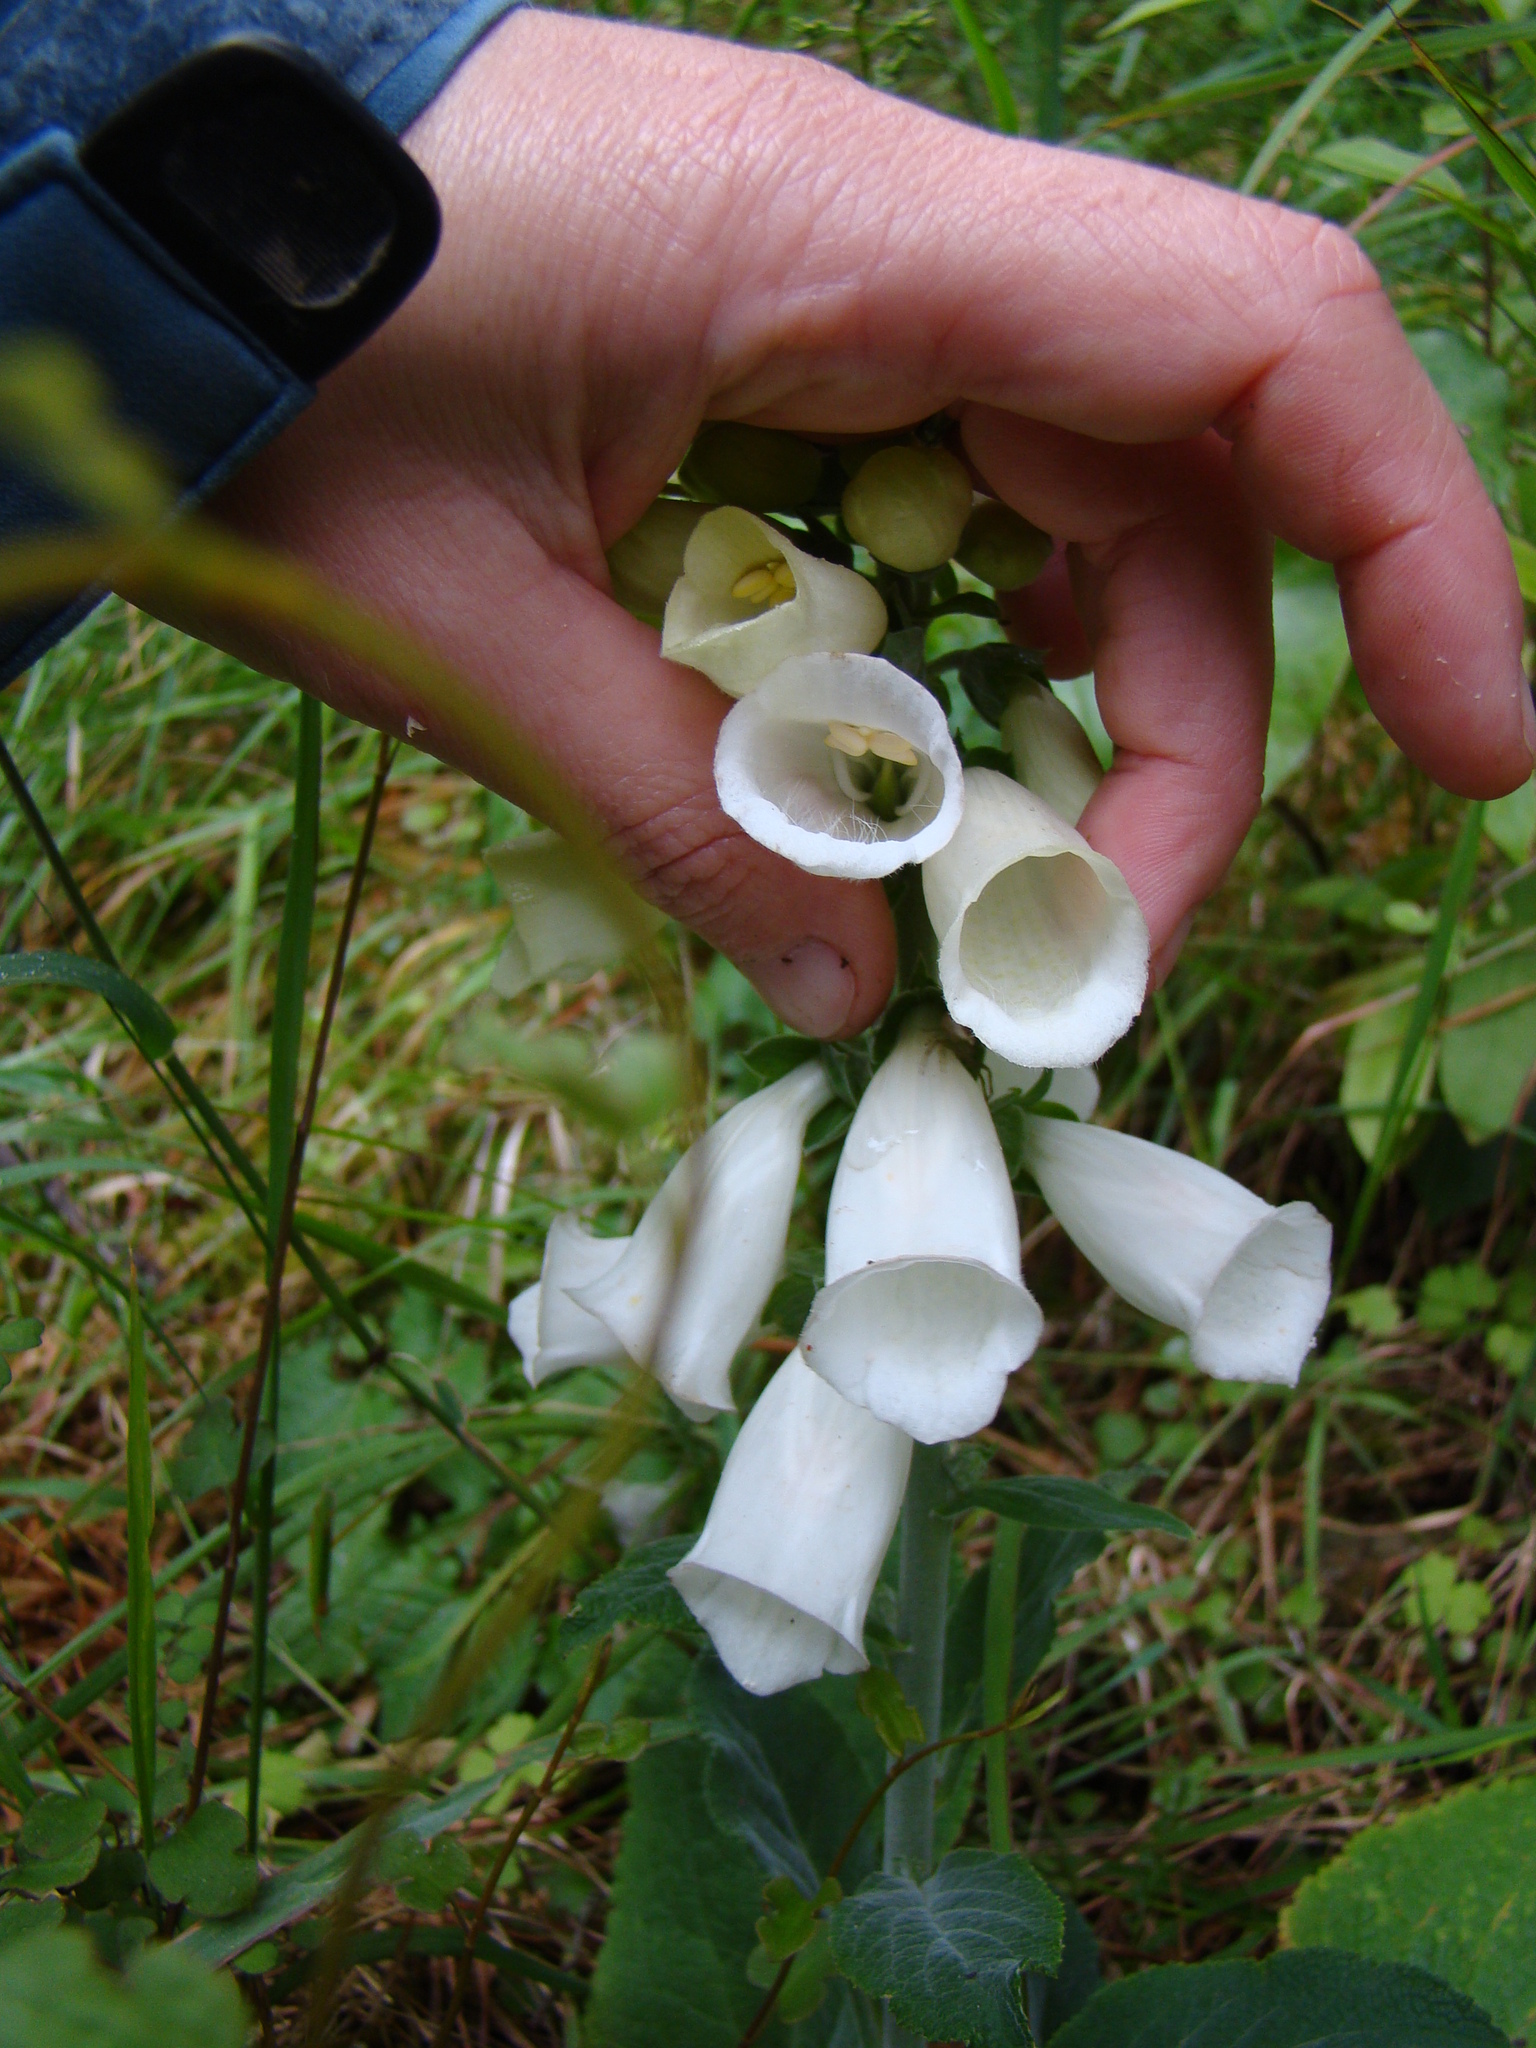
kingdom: Plantae
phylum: Tracheophyta
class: Magnoliopsida
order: Lamiales
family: Plantaginaceae
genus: Digitalis
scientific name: Digitalis purpurea
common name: Foxglove
